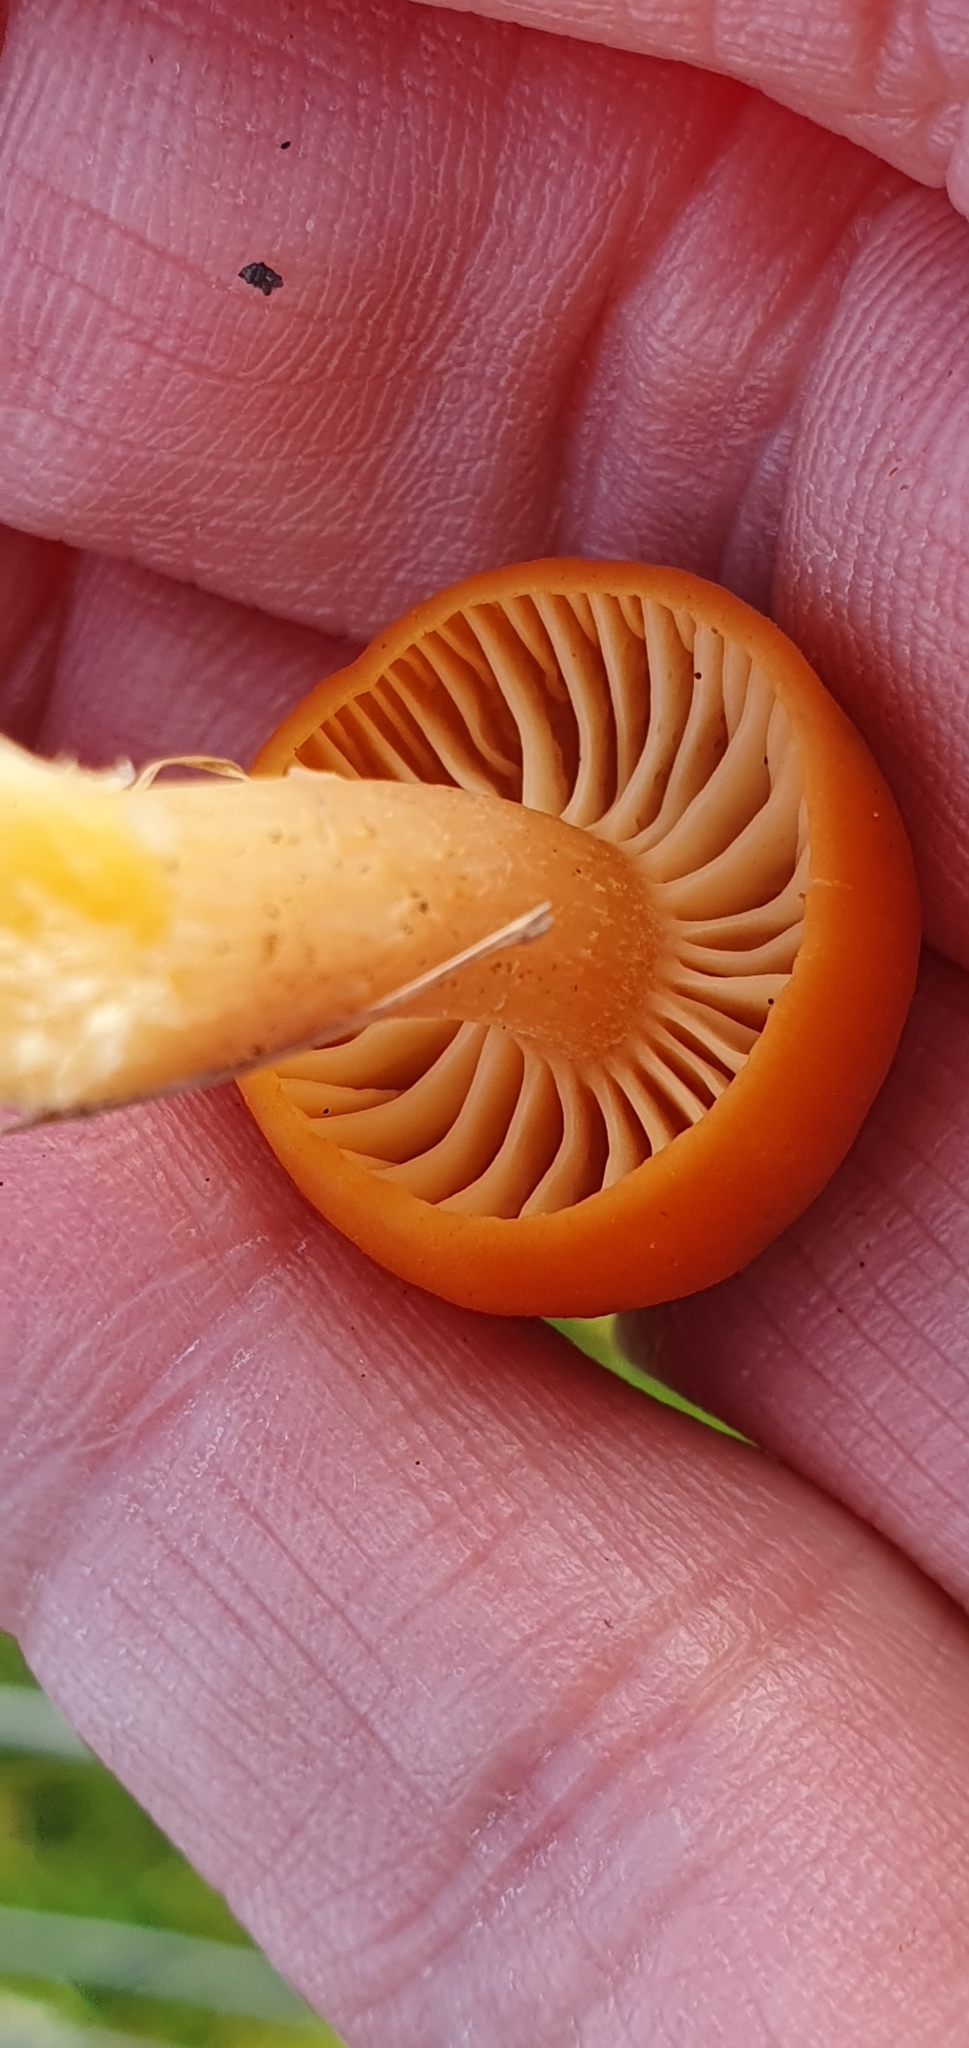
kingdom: Fungi
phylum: Basidiomycota
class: Agaricomycetes
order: Agaricales
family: Hygrophoraceae
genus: Cuphophyllus
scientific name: Cuphophyllus pratensis
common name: Meadow waxcap
